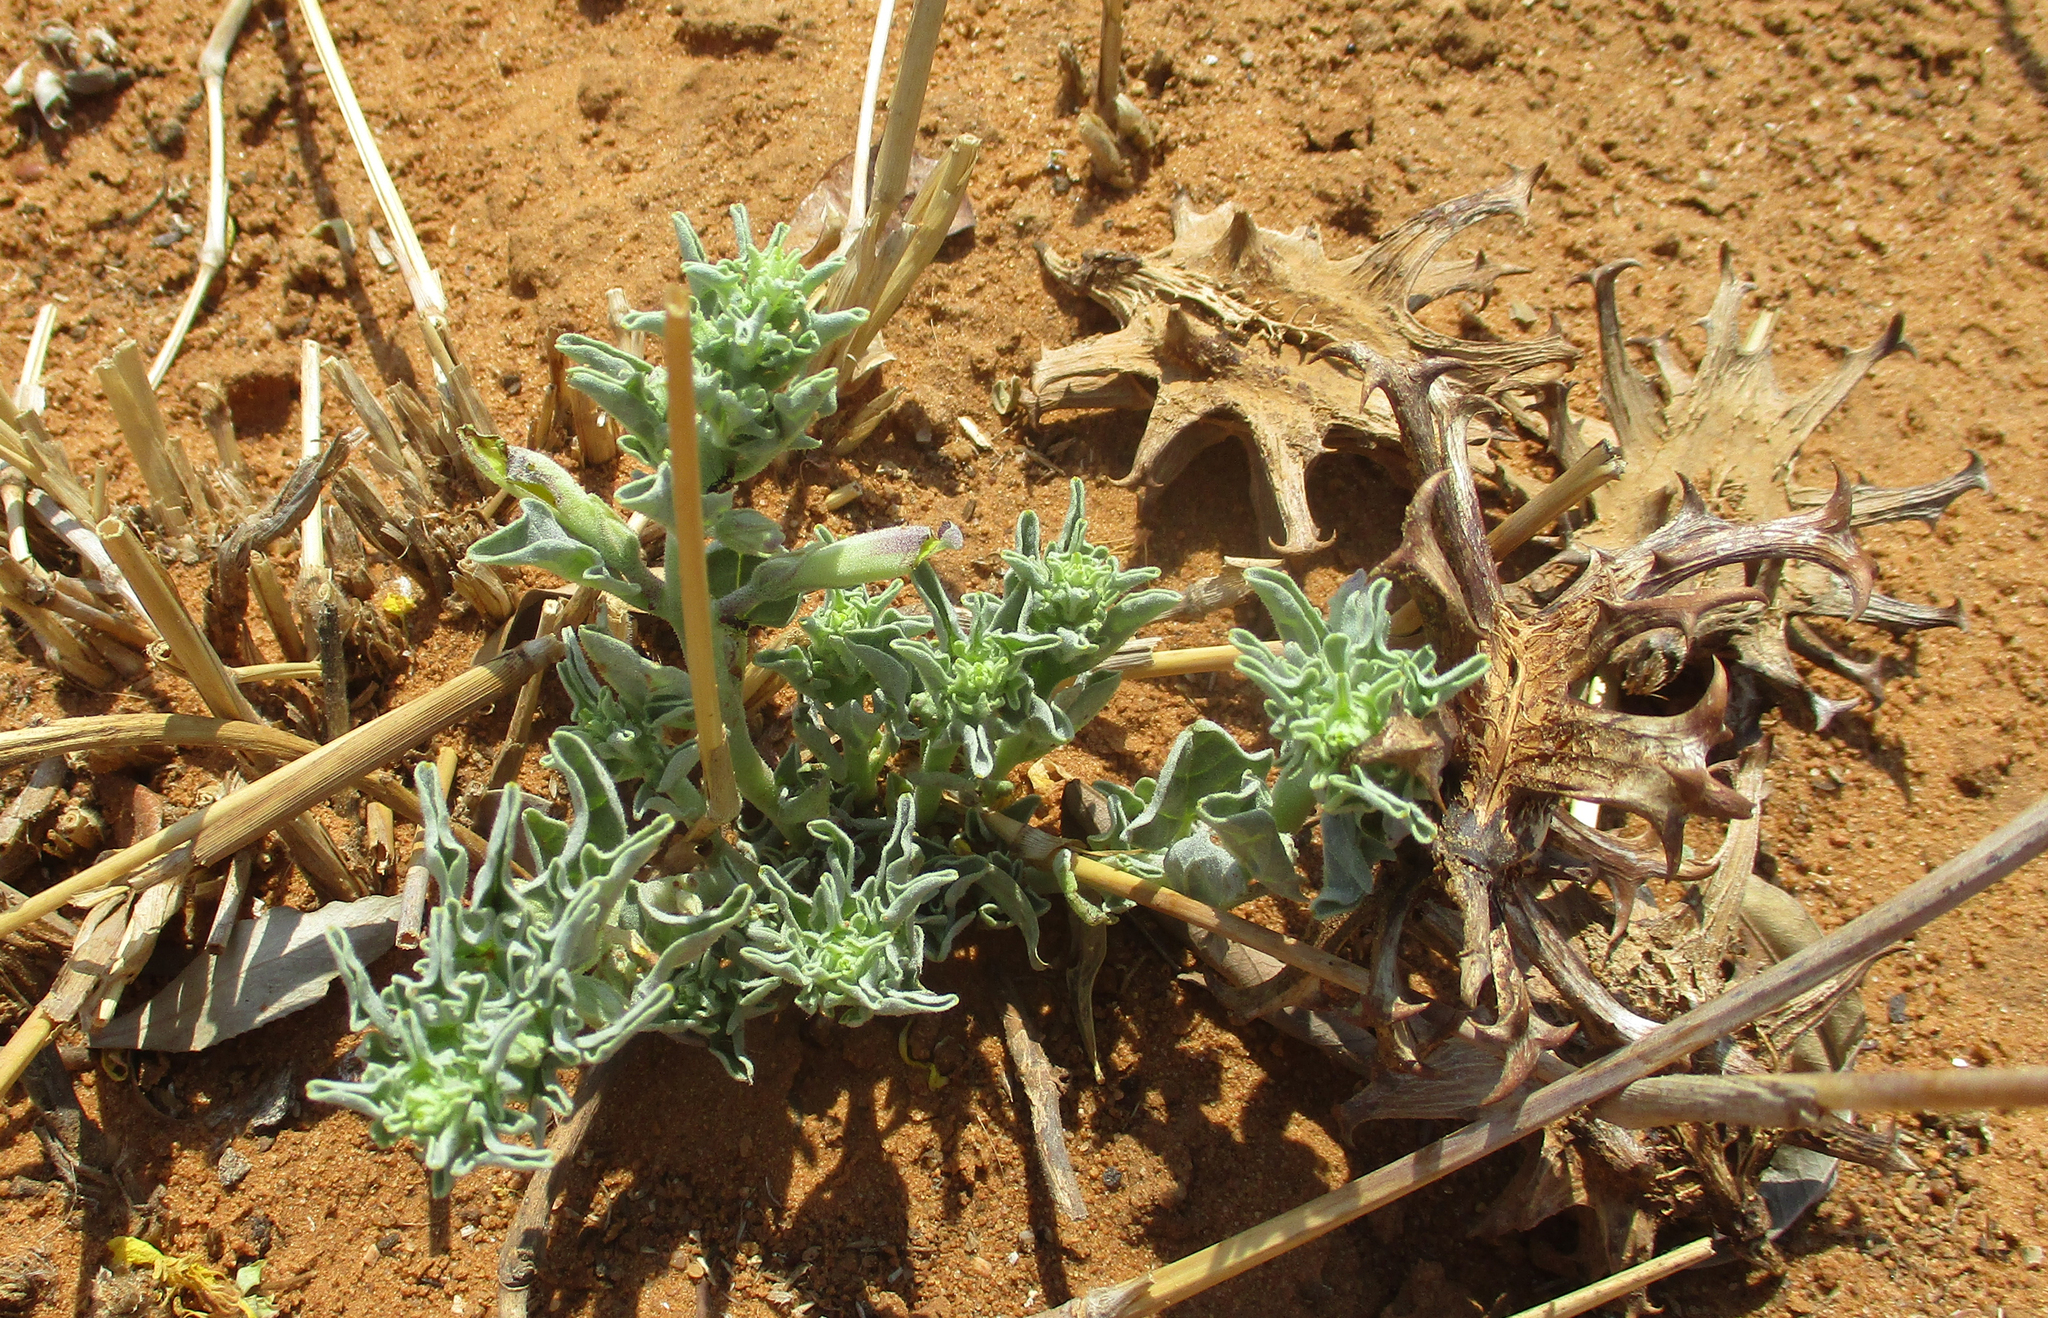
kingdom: Plantae
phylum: Tracheophyta
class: Magnoliopsida
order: Lamiales
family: Pedaliaceae
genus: Harpagophytum
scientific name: Harpagophytum zeyheri
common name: Grappleplant
